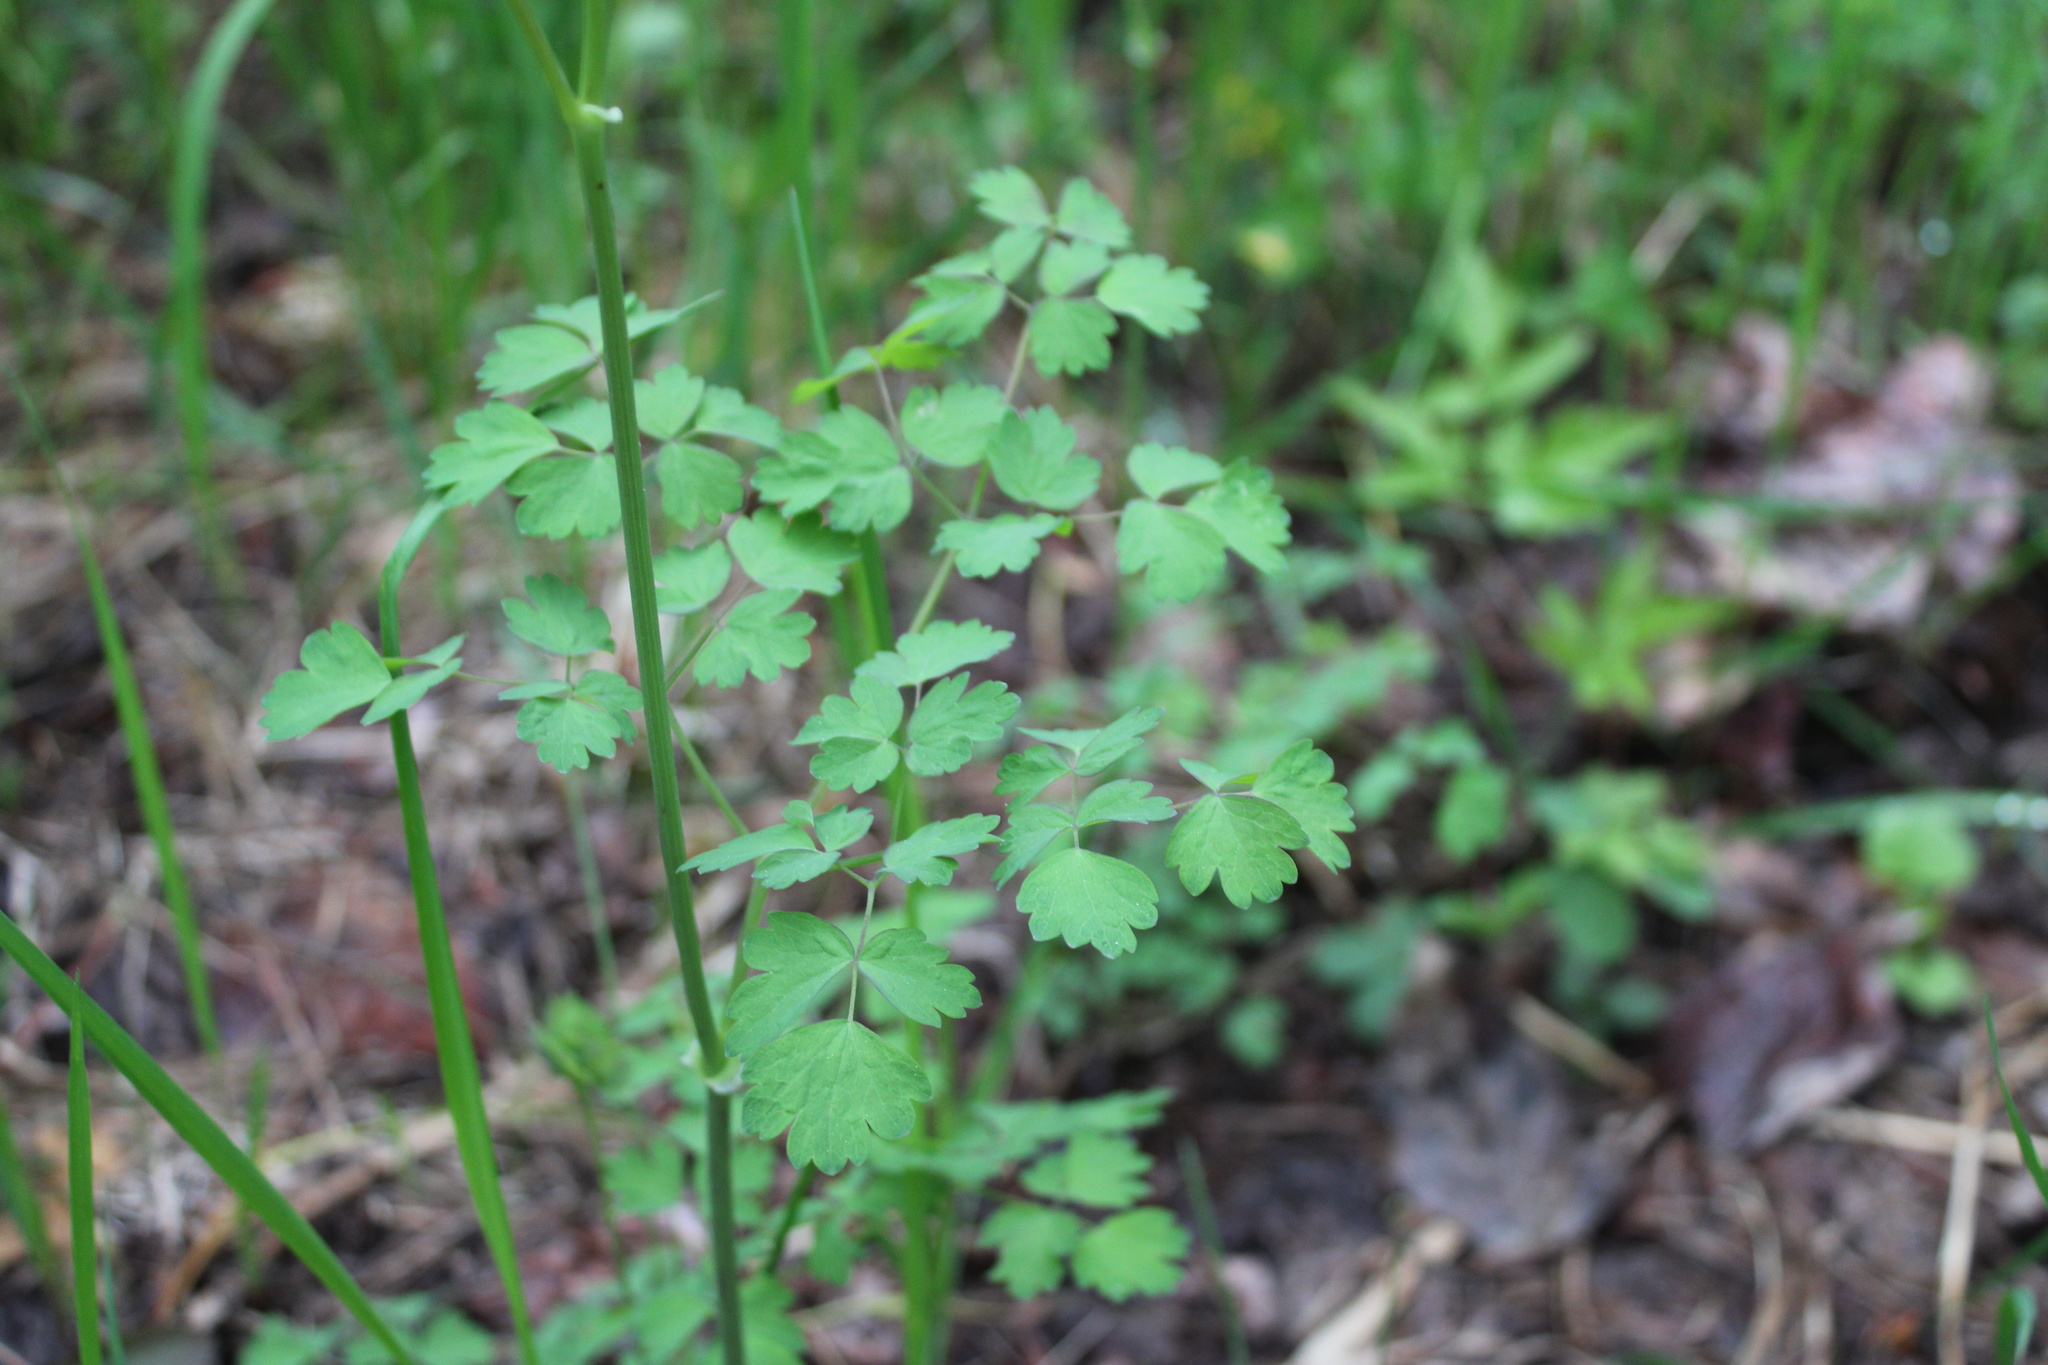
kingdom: Plantae
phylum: Tracheophyta
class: Magnoliopsida
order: Ranunculales
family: Ranunculaceae
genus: Thalictrum
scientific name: Thalictrum occidentale
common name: Western meadow-rue
